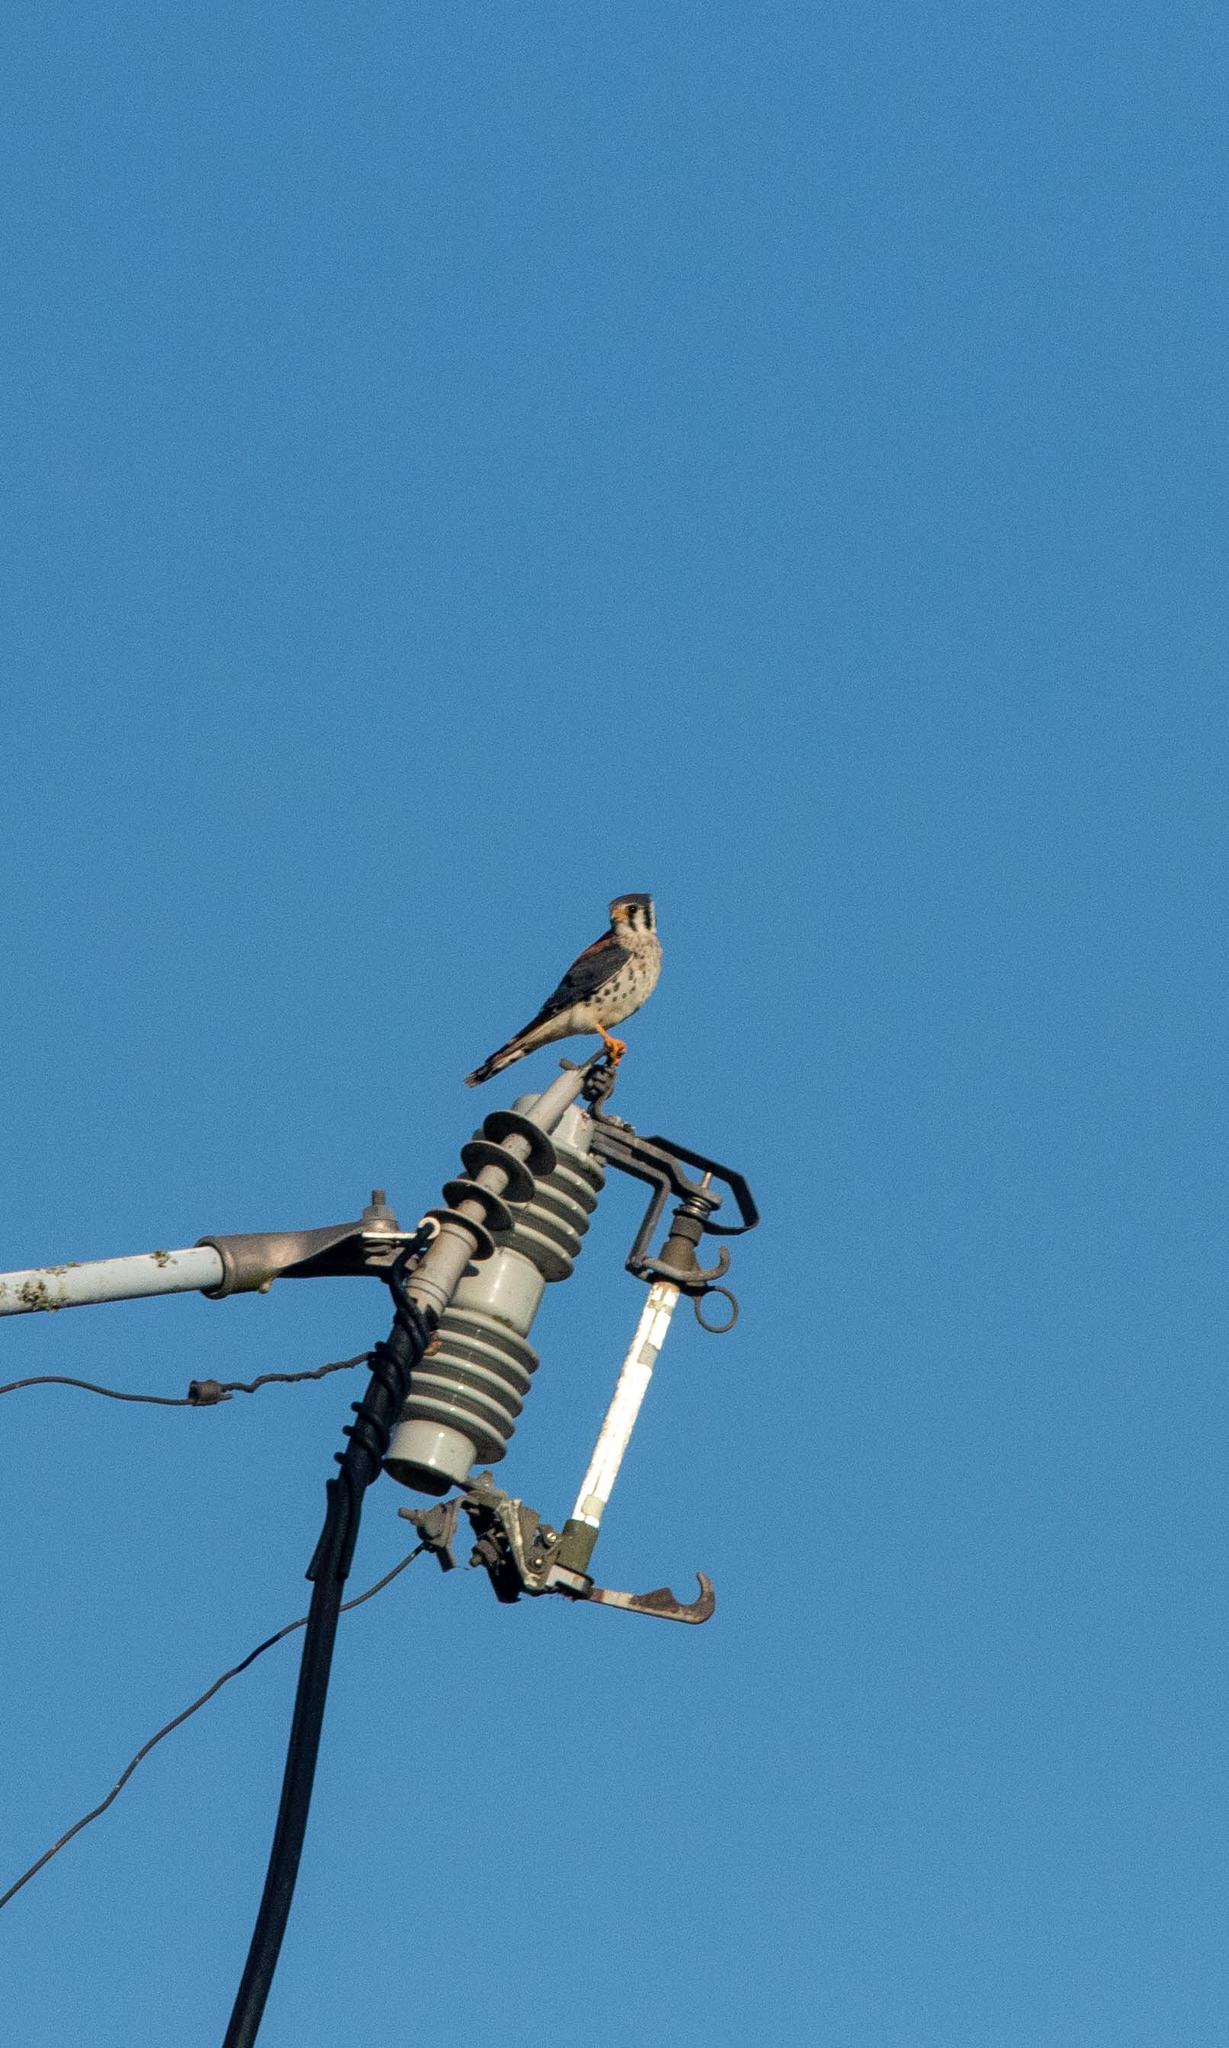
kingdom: Animalia
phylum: Chordata
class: Aves
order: Falconiformes
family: Falconidae
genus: Falco
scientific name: Falco sparverius
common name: American kestrel
